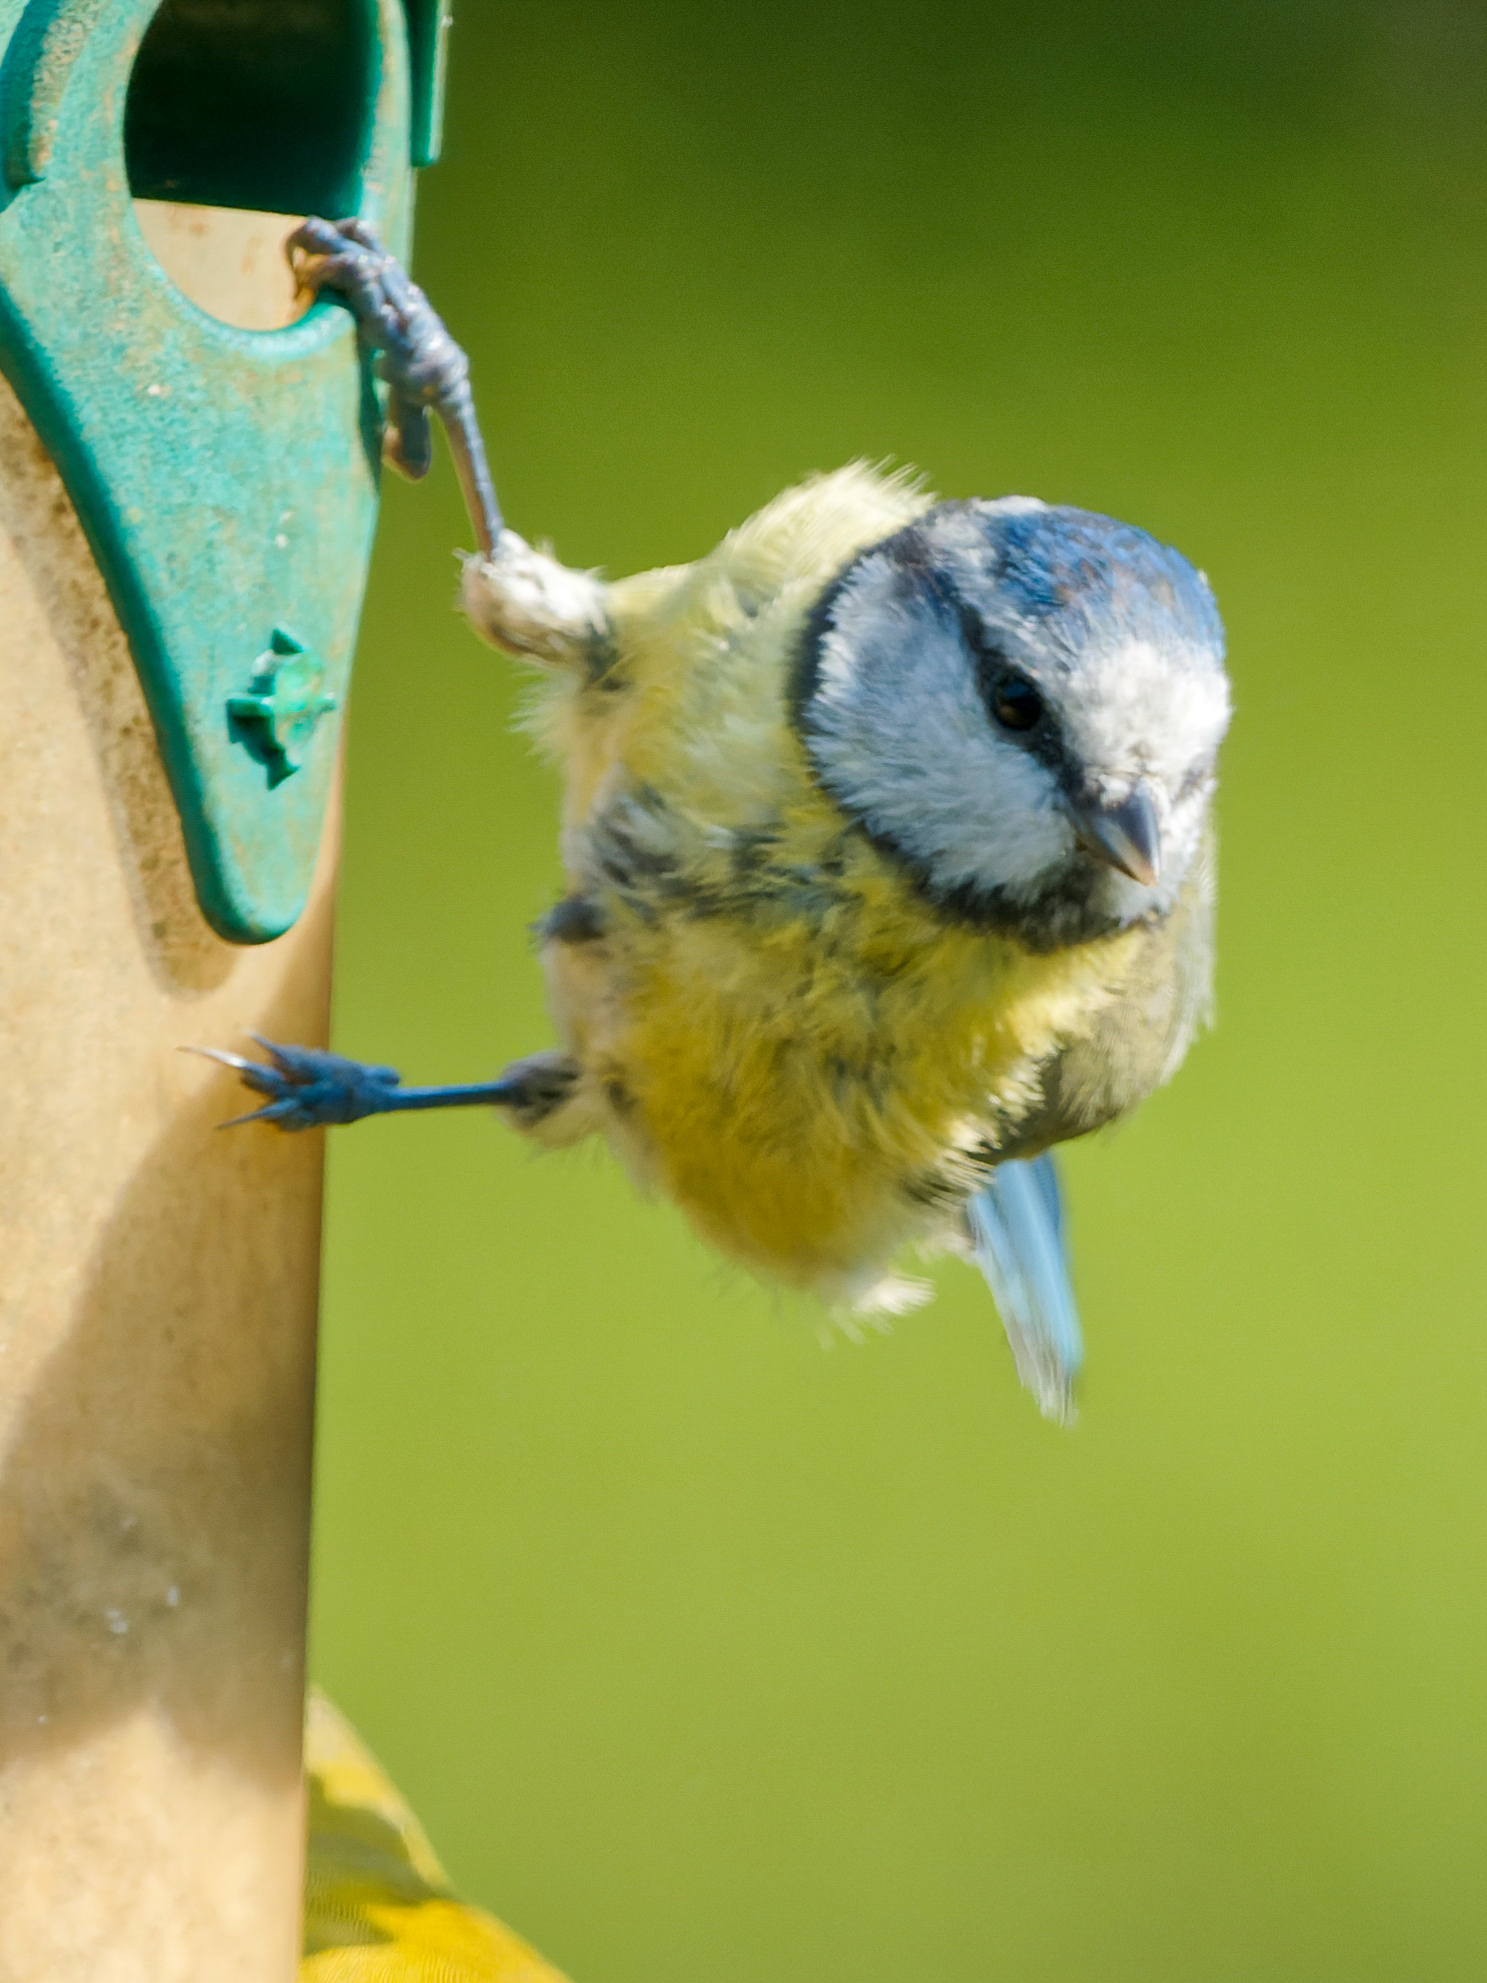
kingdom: Animalia
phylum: Chordata
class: Aves
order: Passeriformes
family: Paridae
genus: Cyanistes
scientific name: Cyanistes caeruleus
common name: Eurasian blue tit
